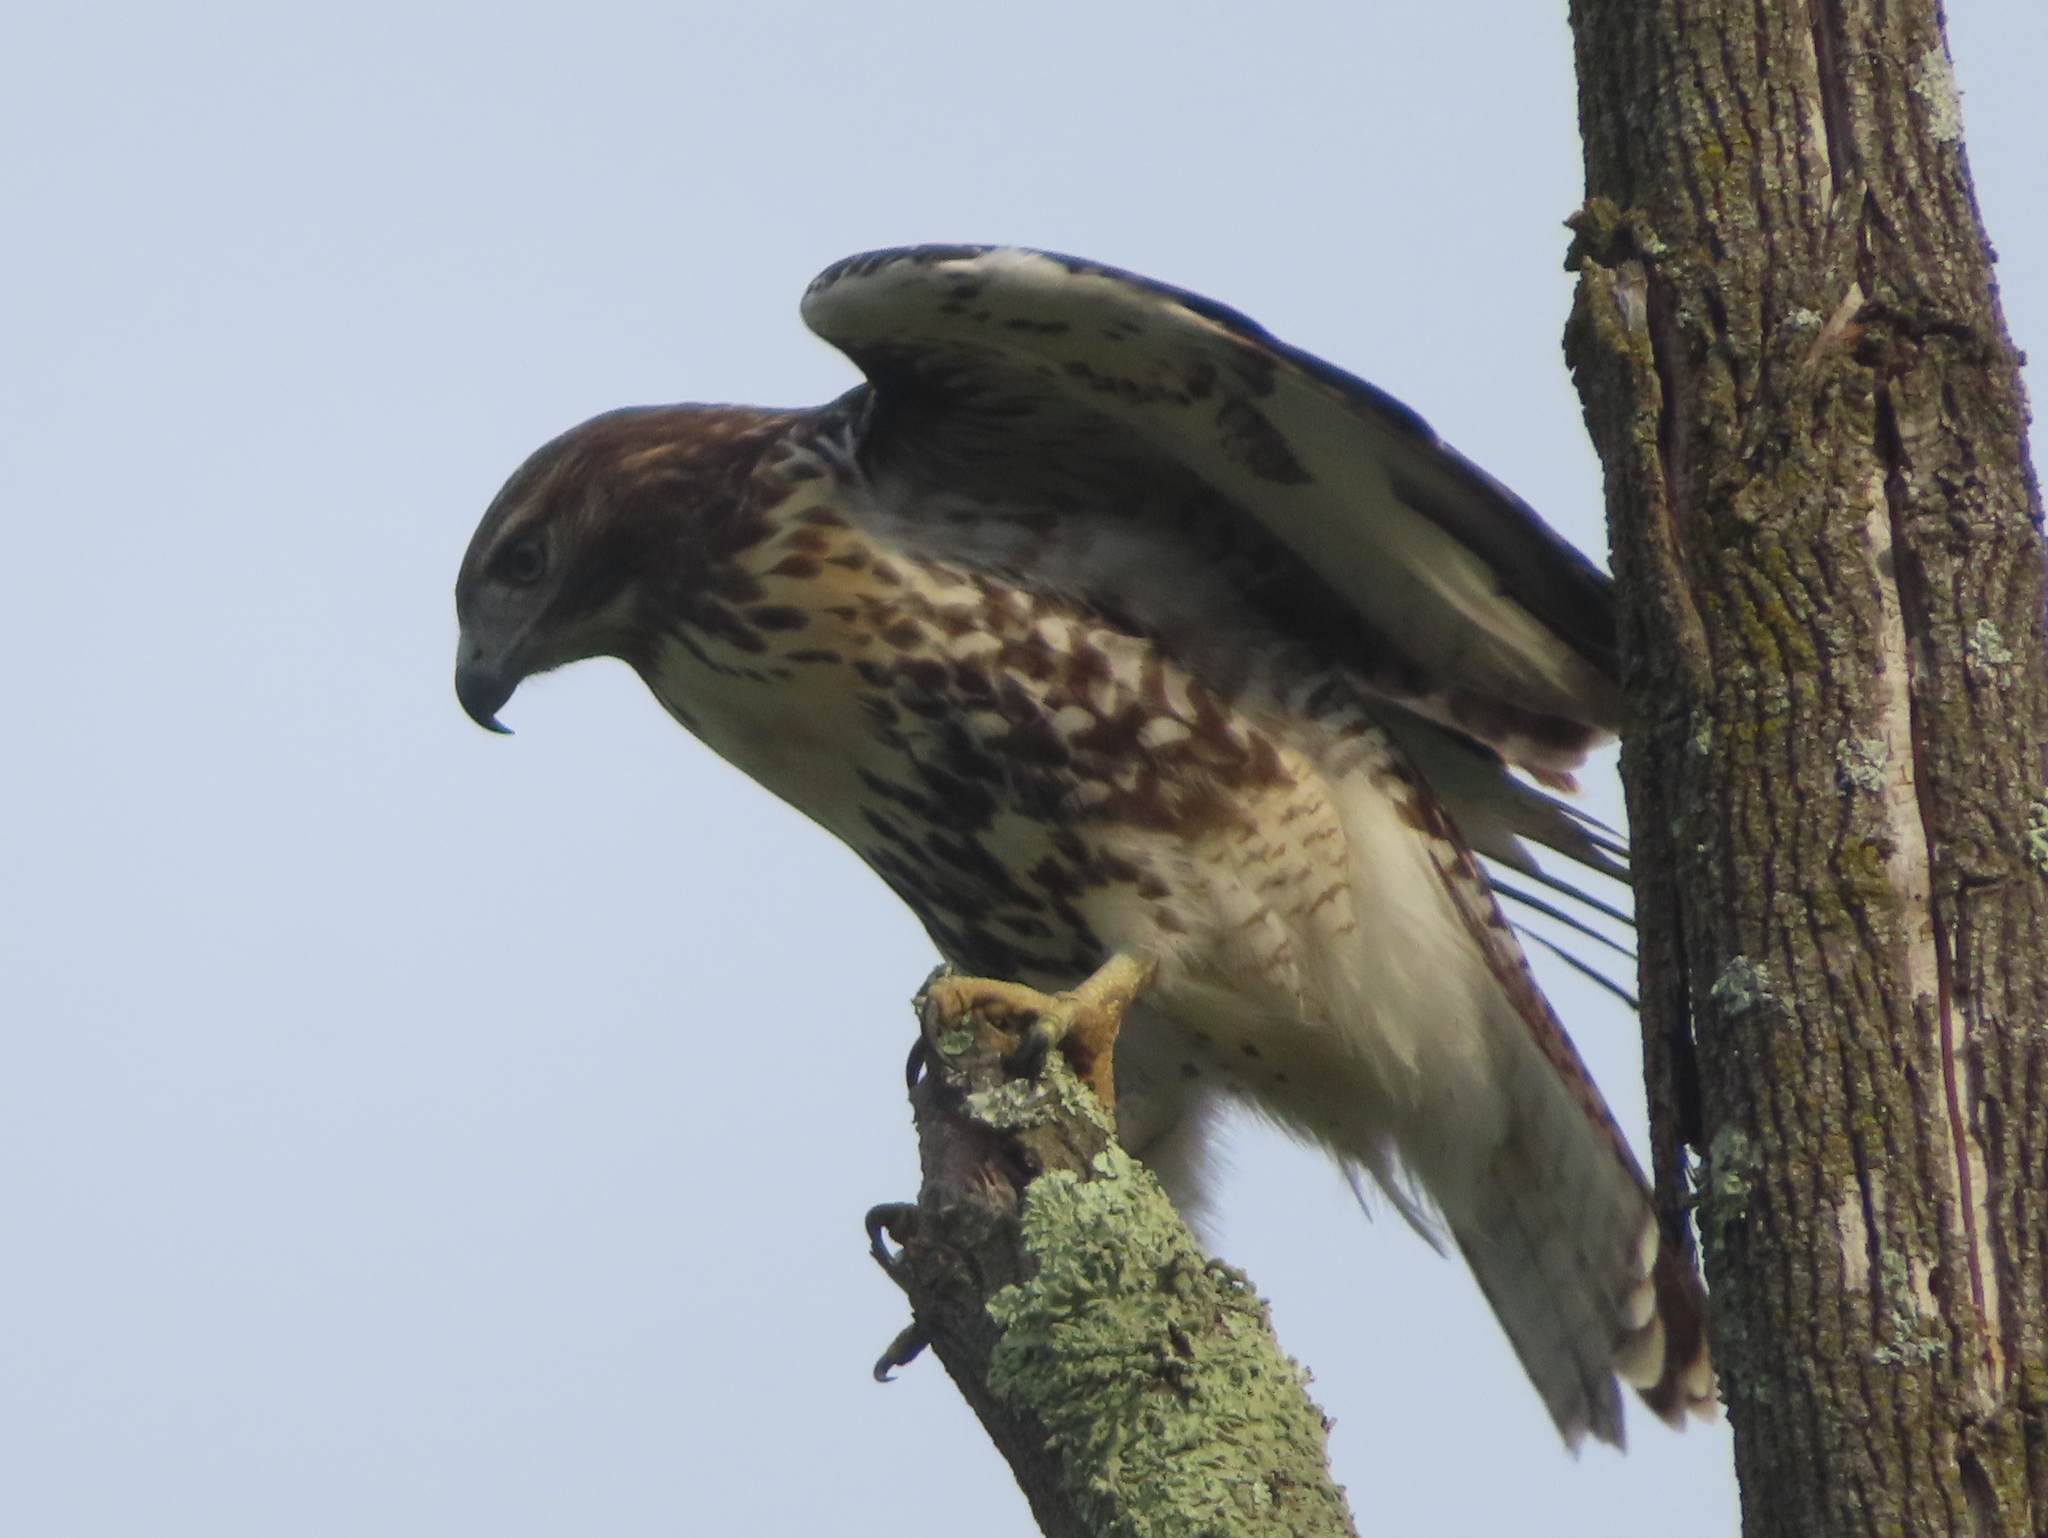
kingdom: Animalia
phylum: Chordata
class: Aves
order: Accipitriformes
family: Accipitridae
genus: Buteo
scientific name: Buteo jamaicensis
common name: Red-tailed hawk
